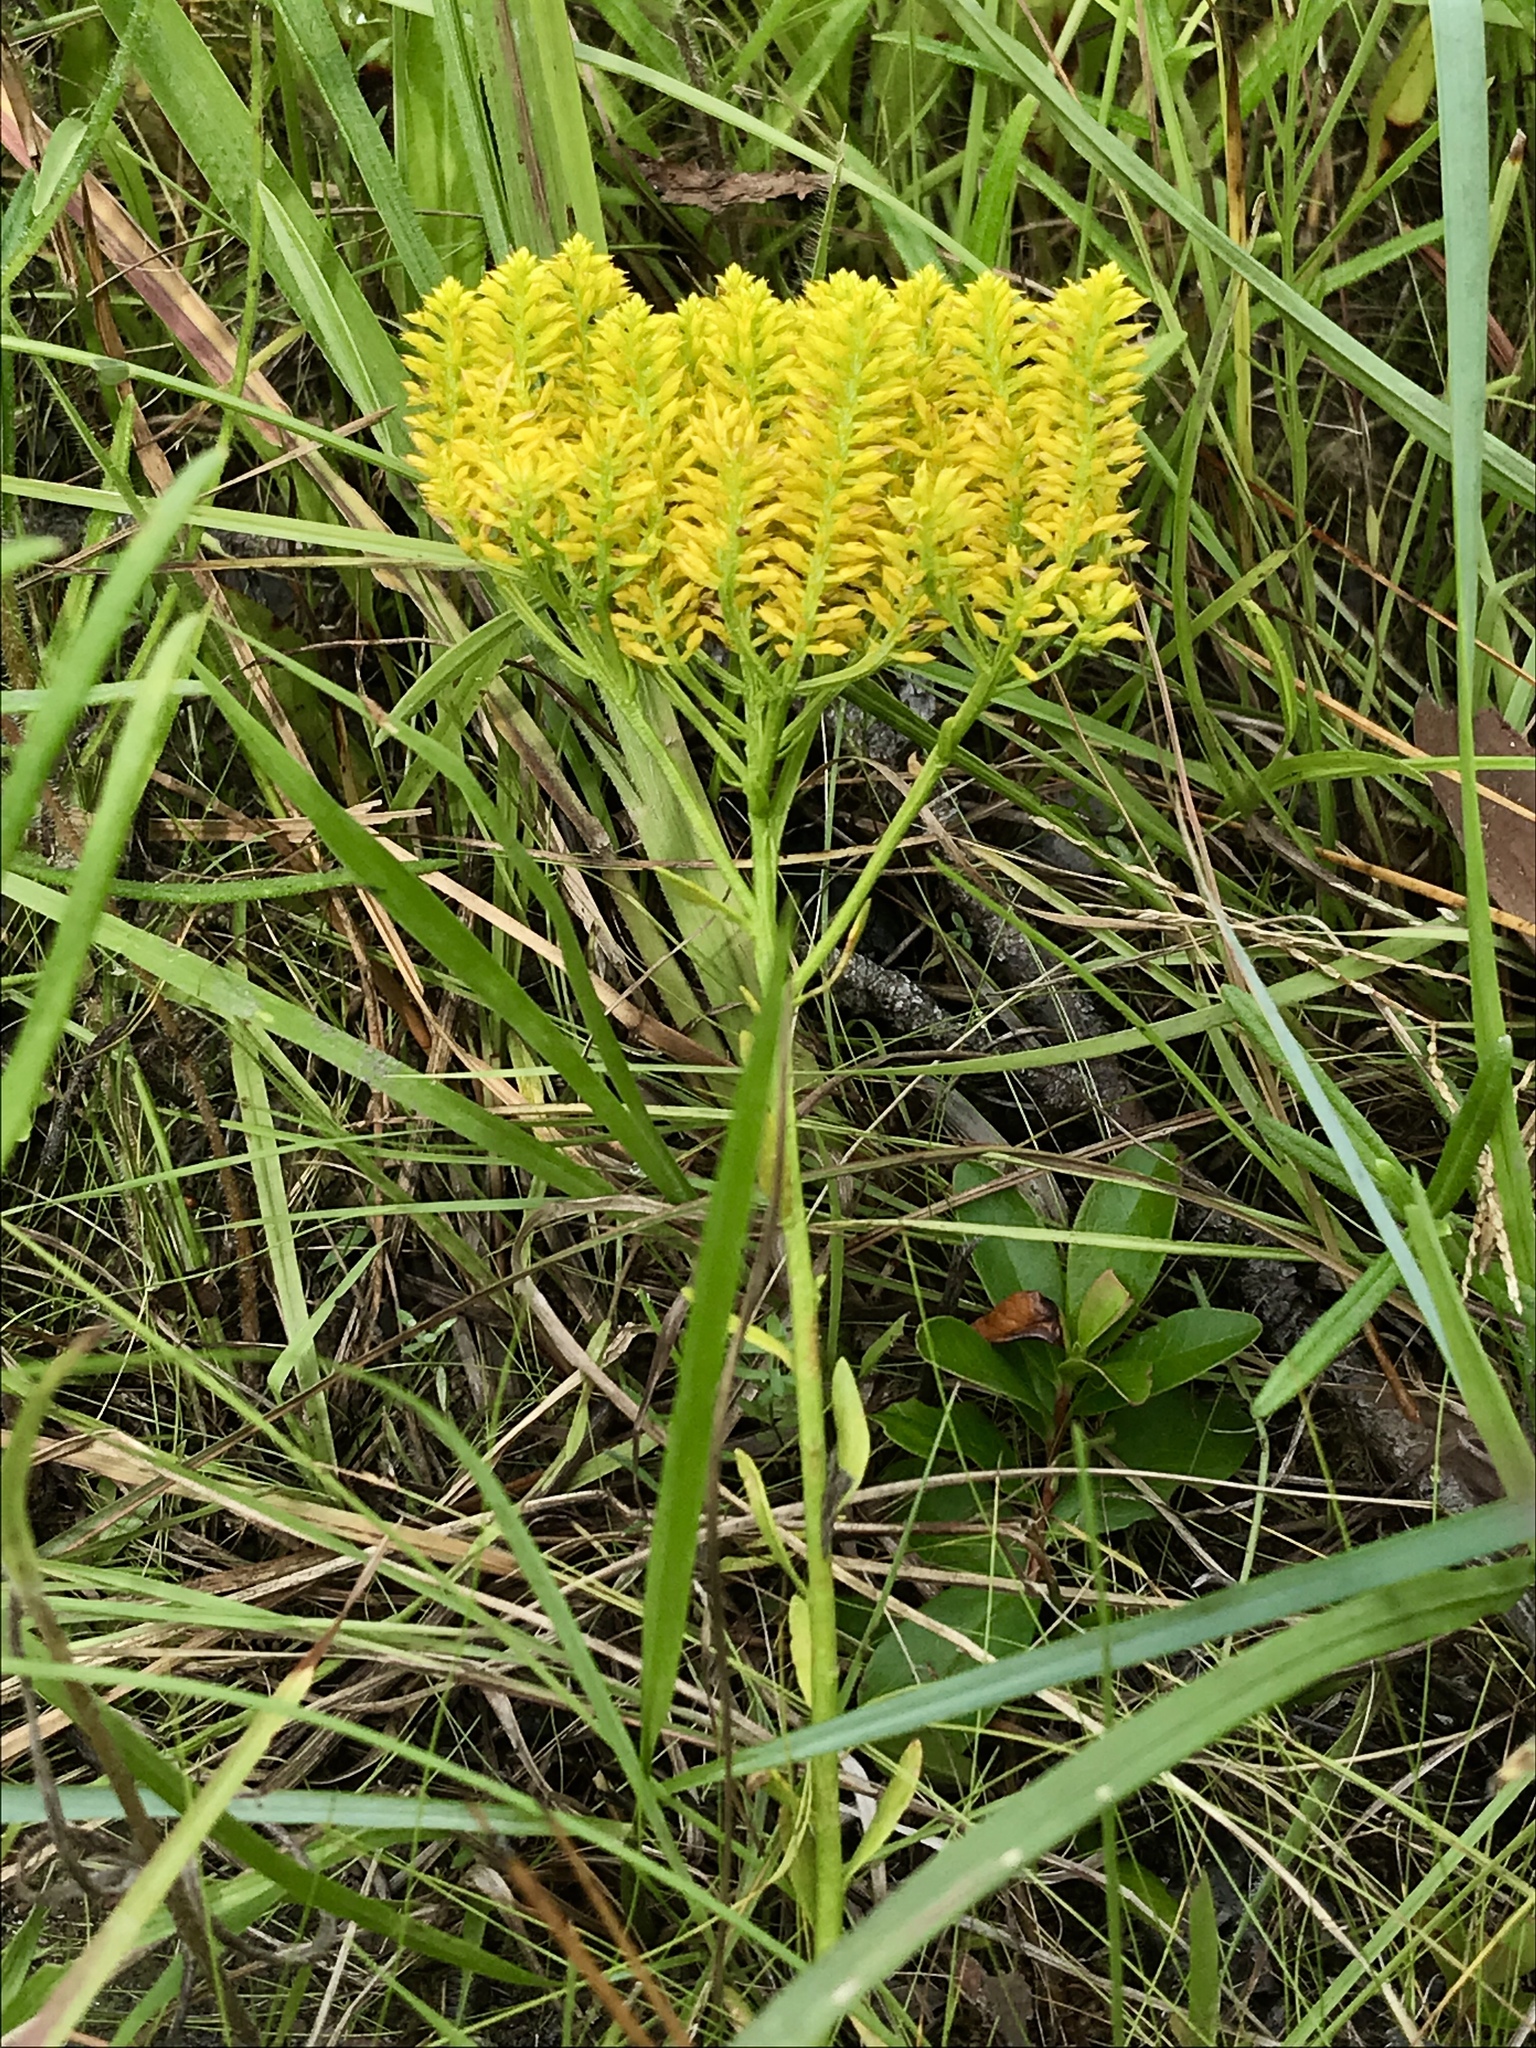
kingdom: Plantae
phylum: Tracheophyta
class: Magnoliopsida
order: Fabales
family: Polygalaceae
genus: Polygala
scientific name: Polygala ramosa
